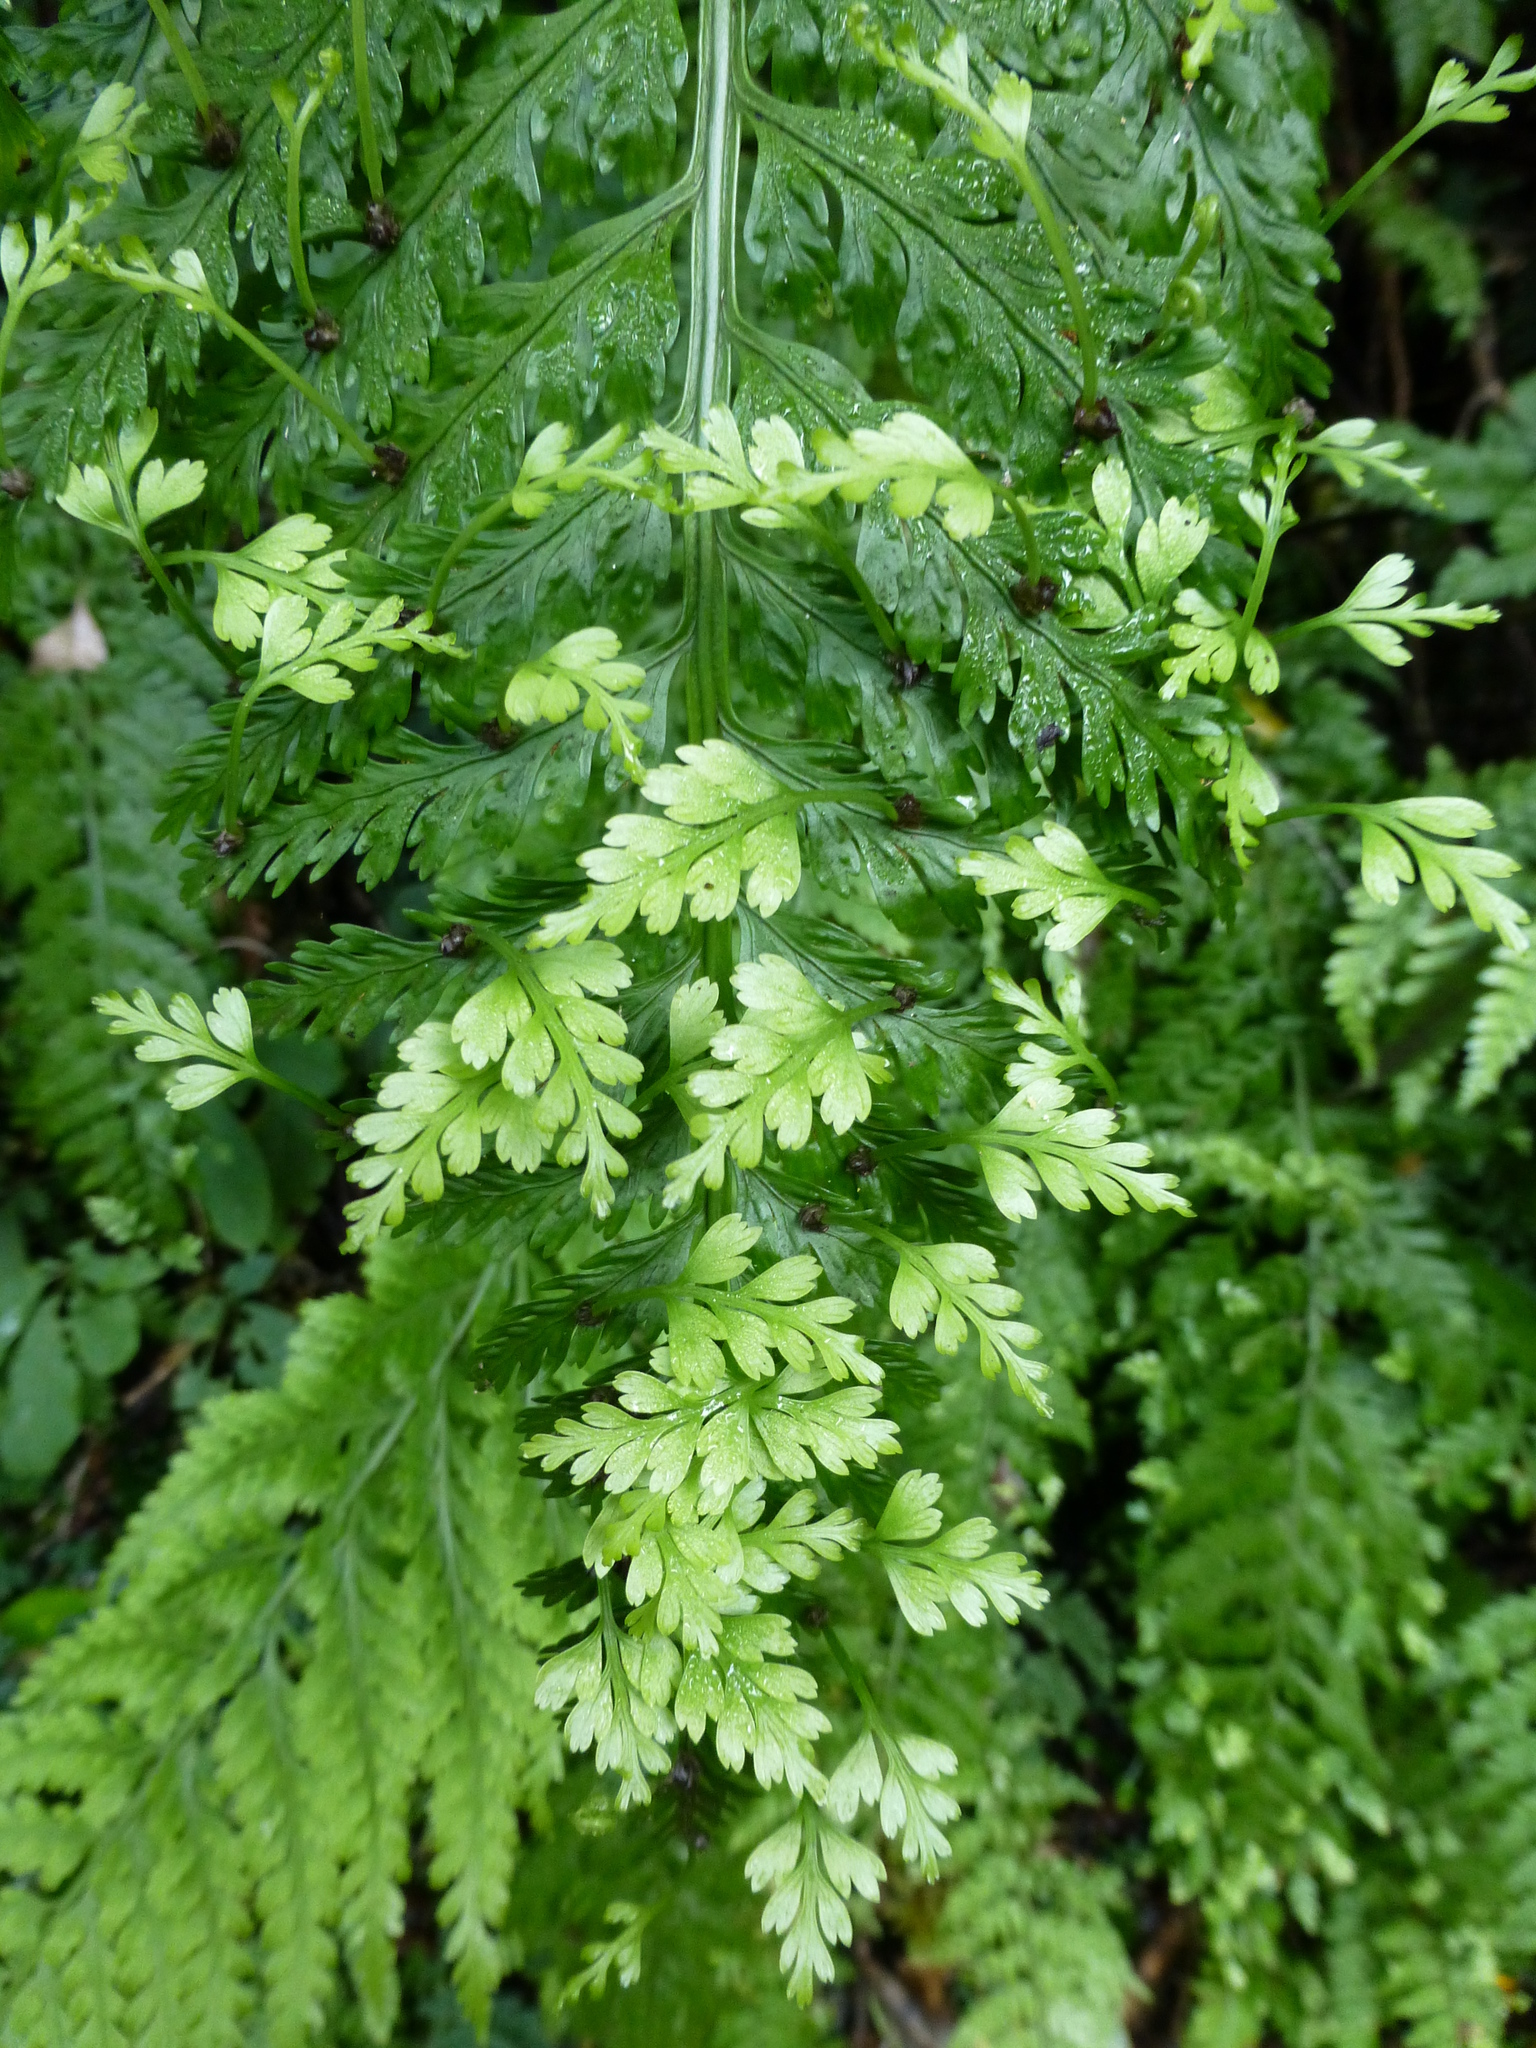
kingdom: Plantae
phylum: Tracheophyta
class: Polypodiopsida
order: Polypodiales
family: Aspleniaceae
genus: Asplenium
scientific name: Asplenium bulbiferum
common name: Mother fern
